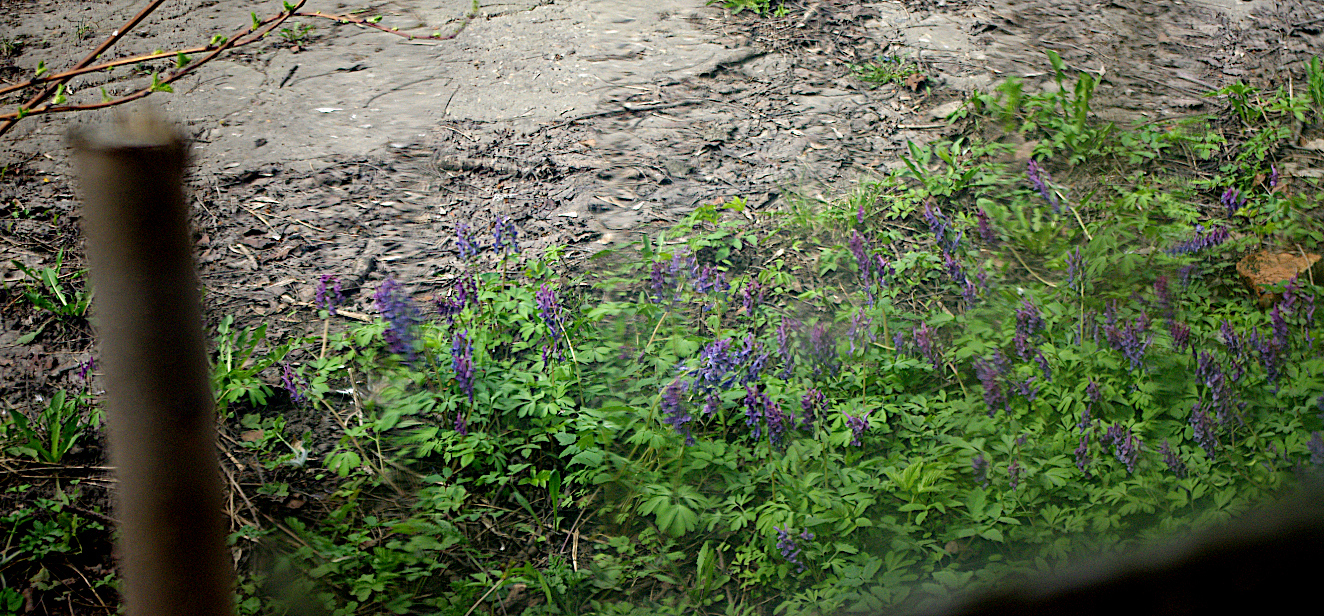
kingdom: Plantae
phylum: Tracheophyta
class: Magnoliopsida
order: Ranunculales
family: Papaveraceae
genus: Corydalis
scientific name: Corydalis solida
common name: Bird-in-a-bush
